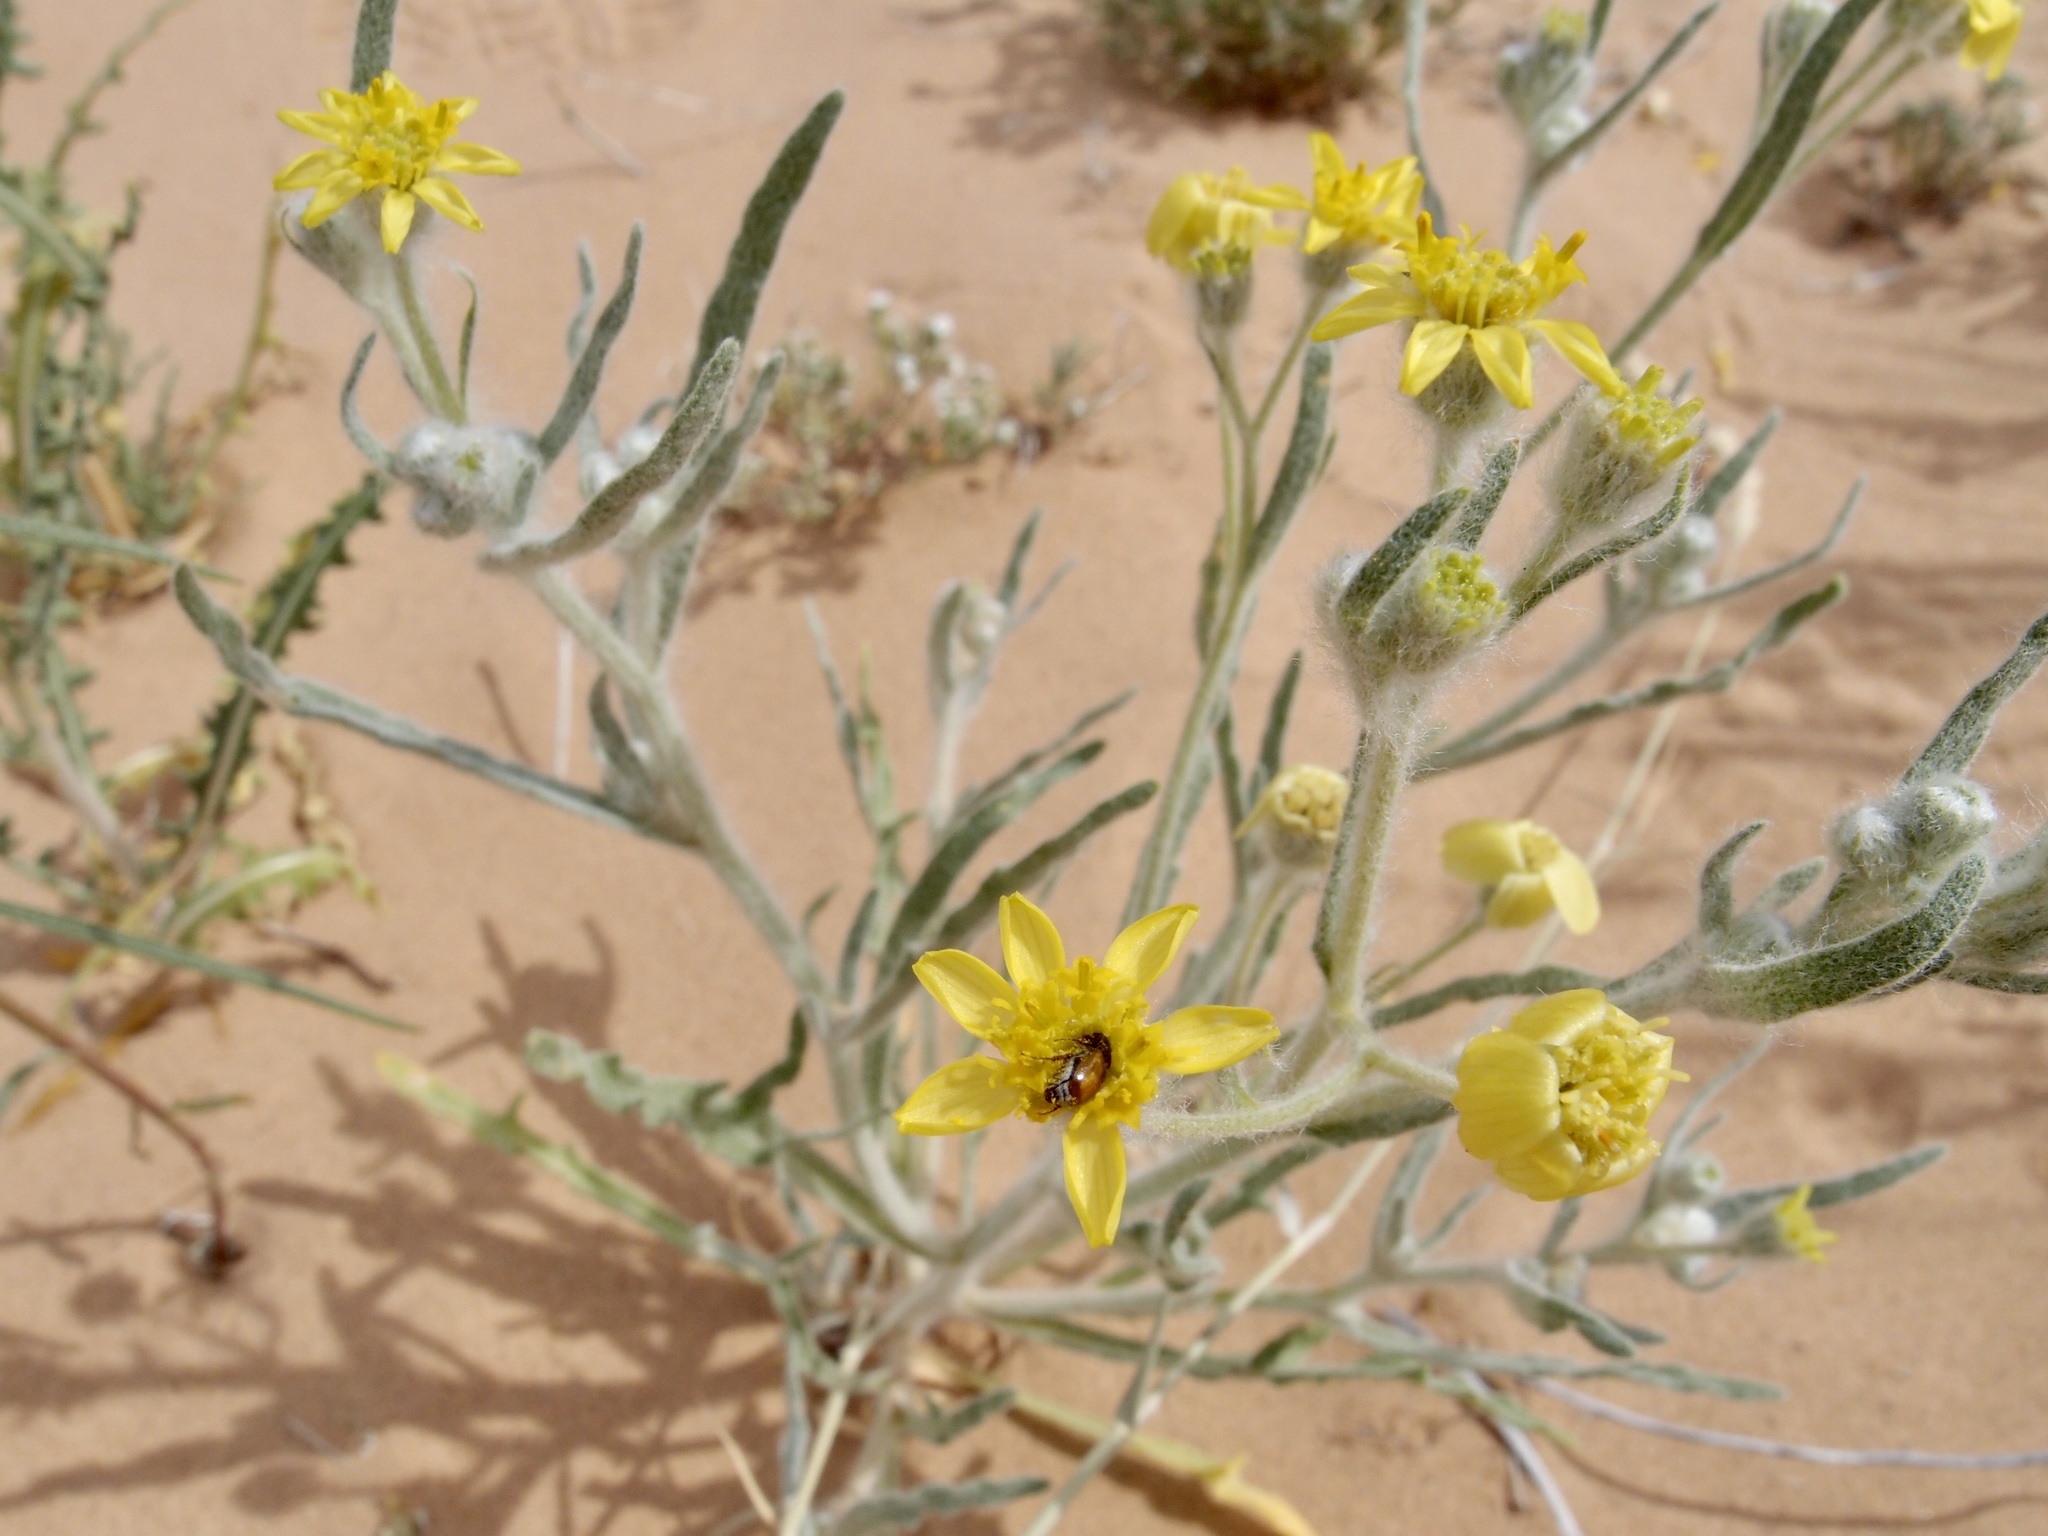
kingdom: Plantae
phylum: Tracheophyta
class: Magnoliopsida
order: Asterales
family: Asteraceae
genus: Baileya
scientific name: Baileya pauciradiata
